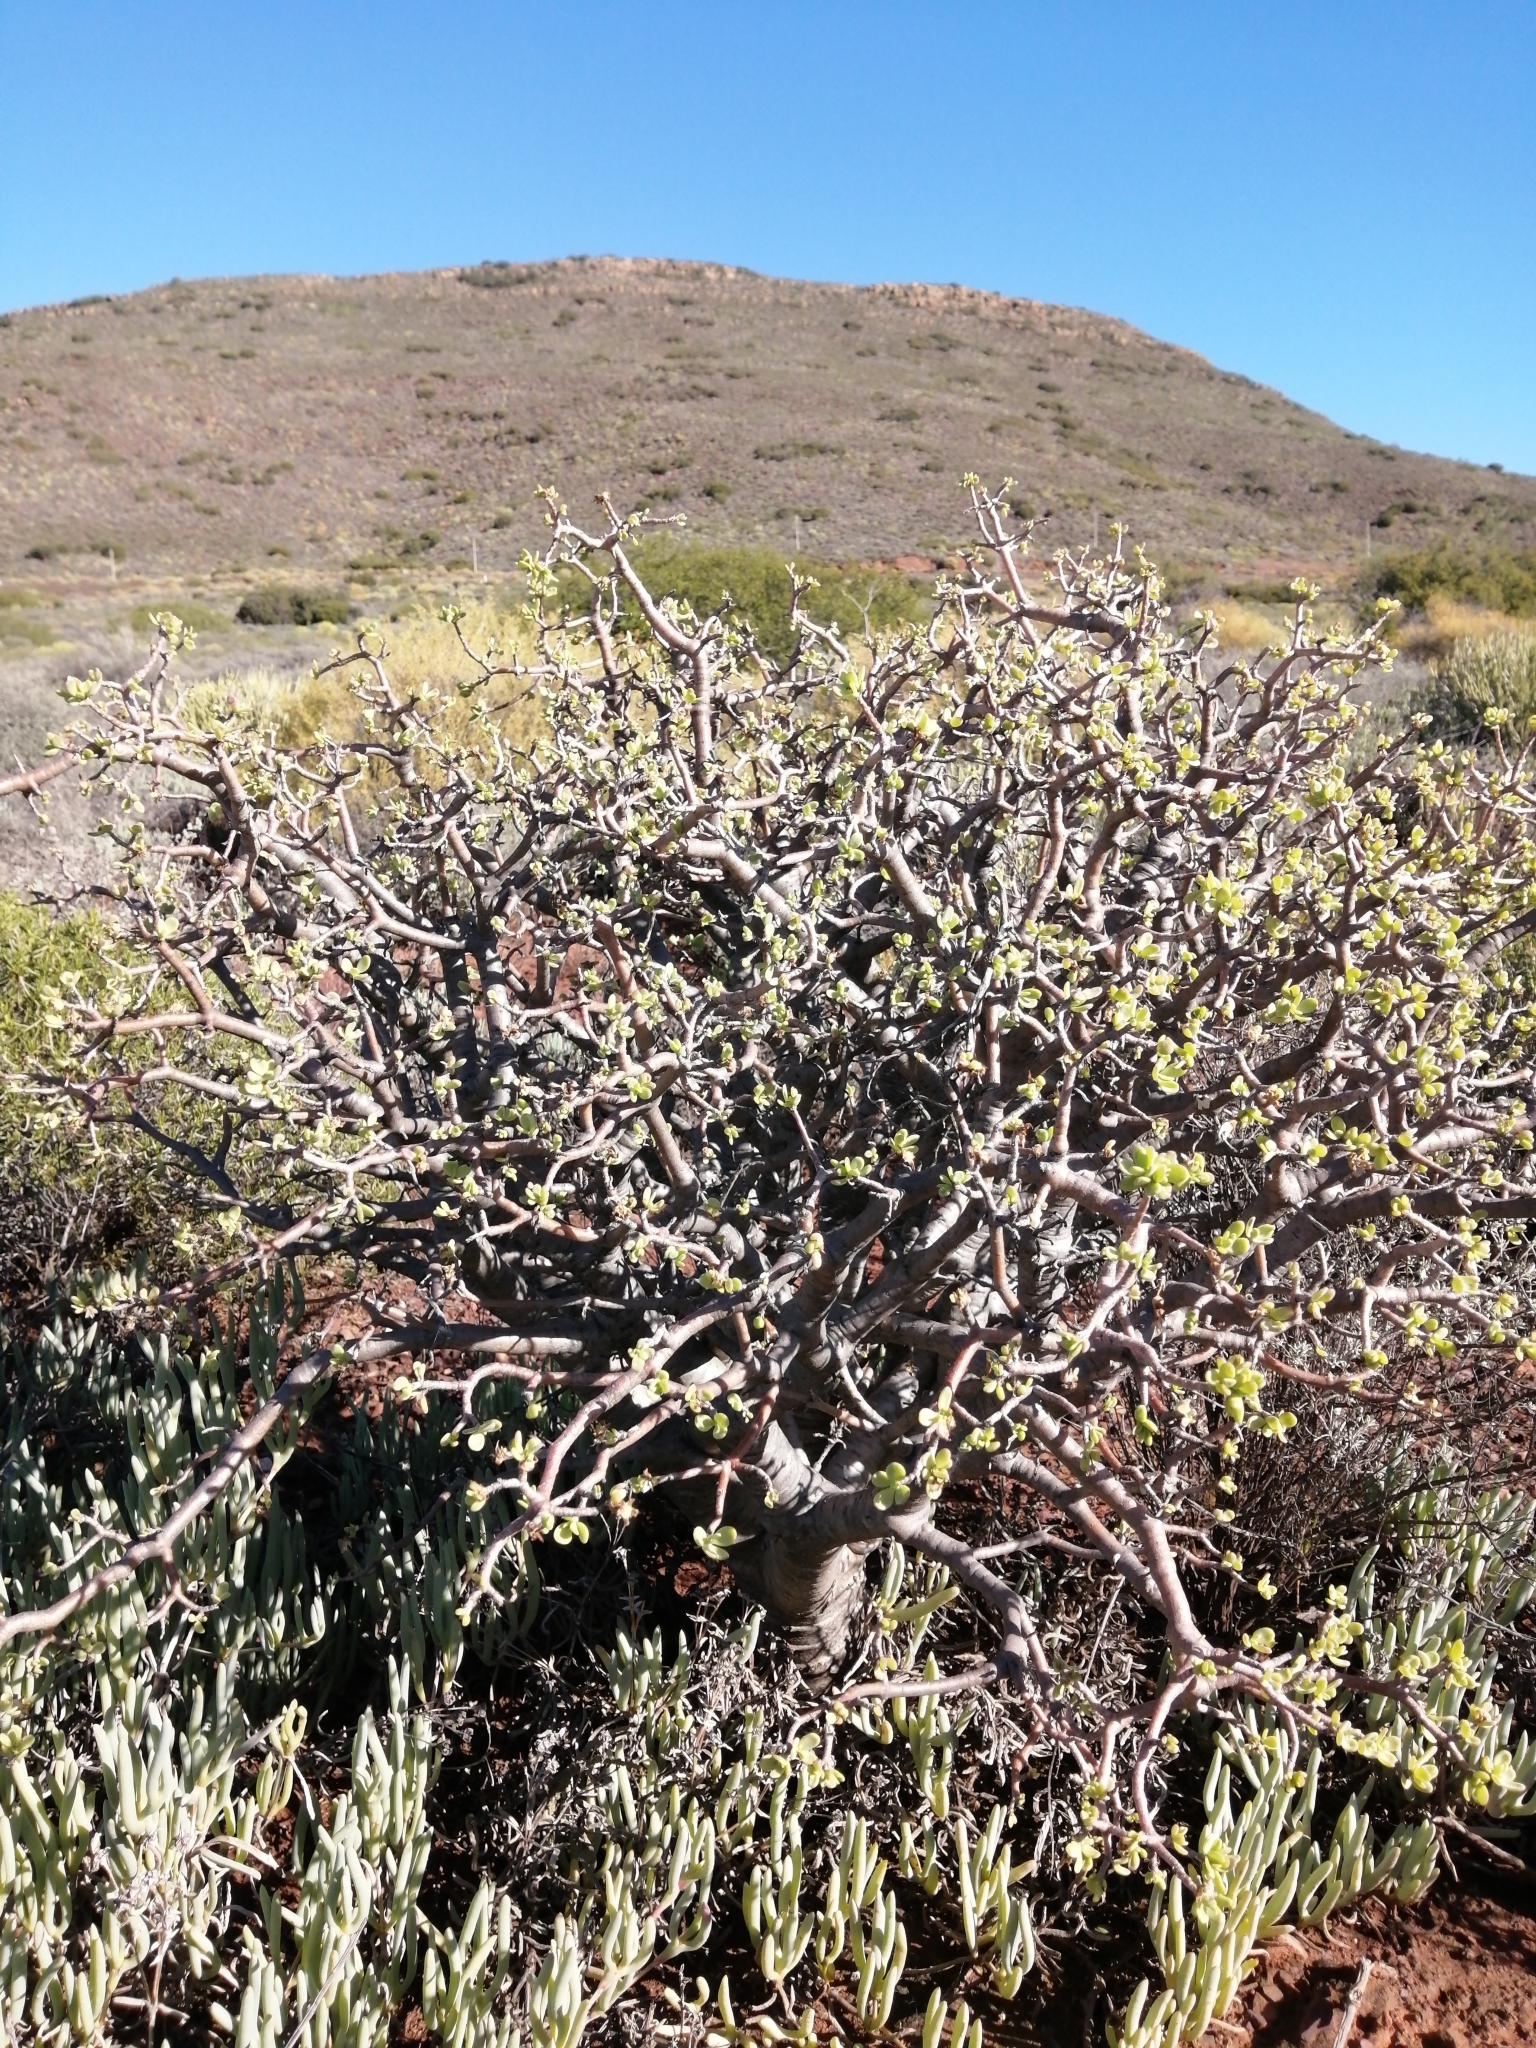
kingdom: Plantae
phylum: Tracheophyta
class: Magnoliopsida
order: Asterales
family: Asteraceae
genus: Othonna
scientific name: Othonna arbuscula
